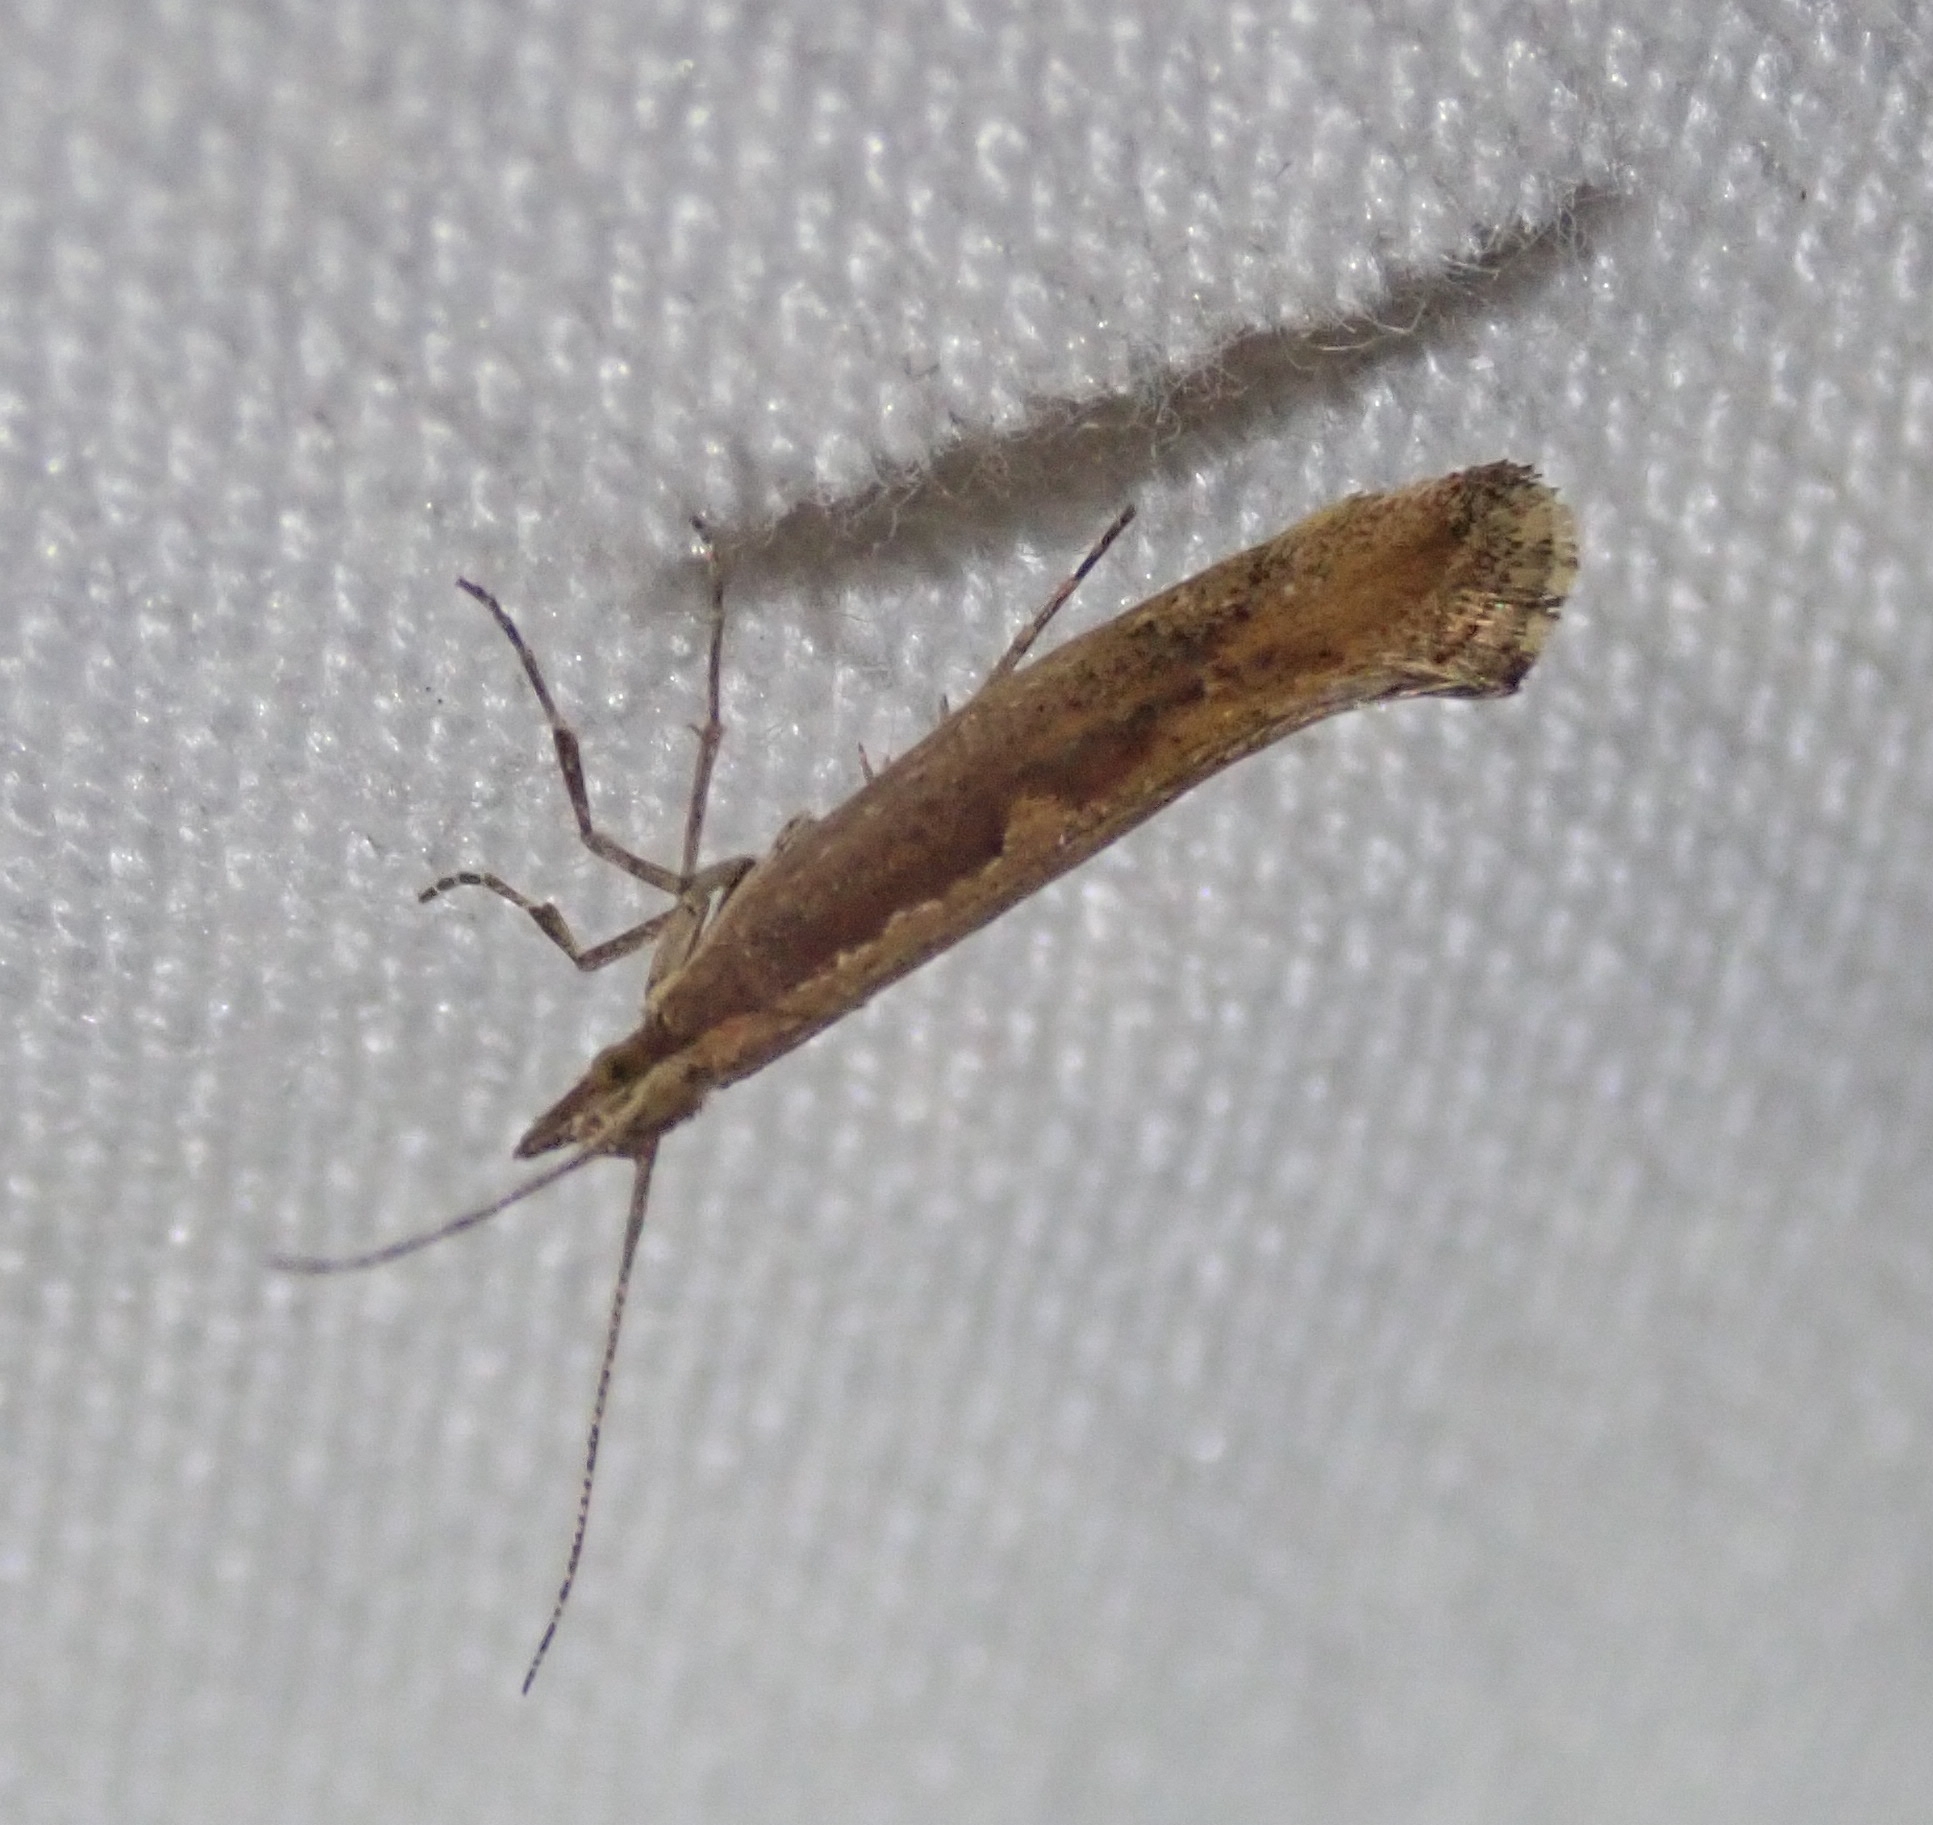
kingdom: Animalia
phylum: Arthropoda
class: Insecta
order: Lepidoptera
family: Plutellidae
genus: Plutella
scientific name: Plutella xylostella
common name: Diamond-back moth
